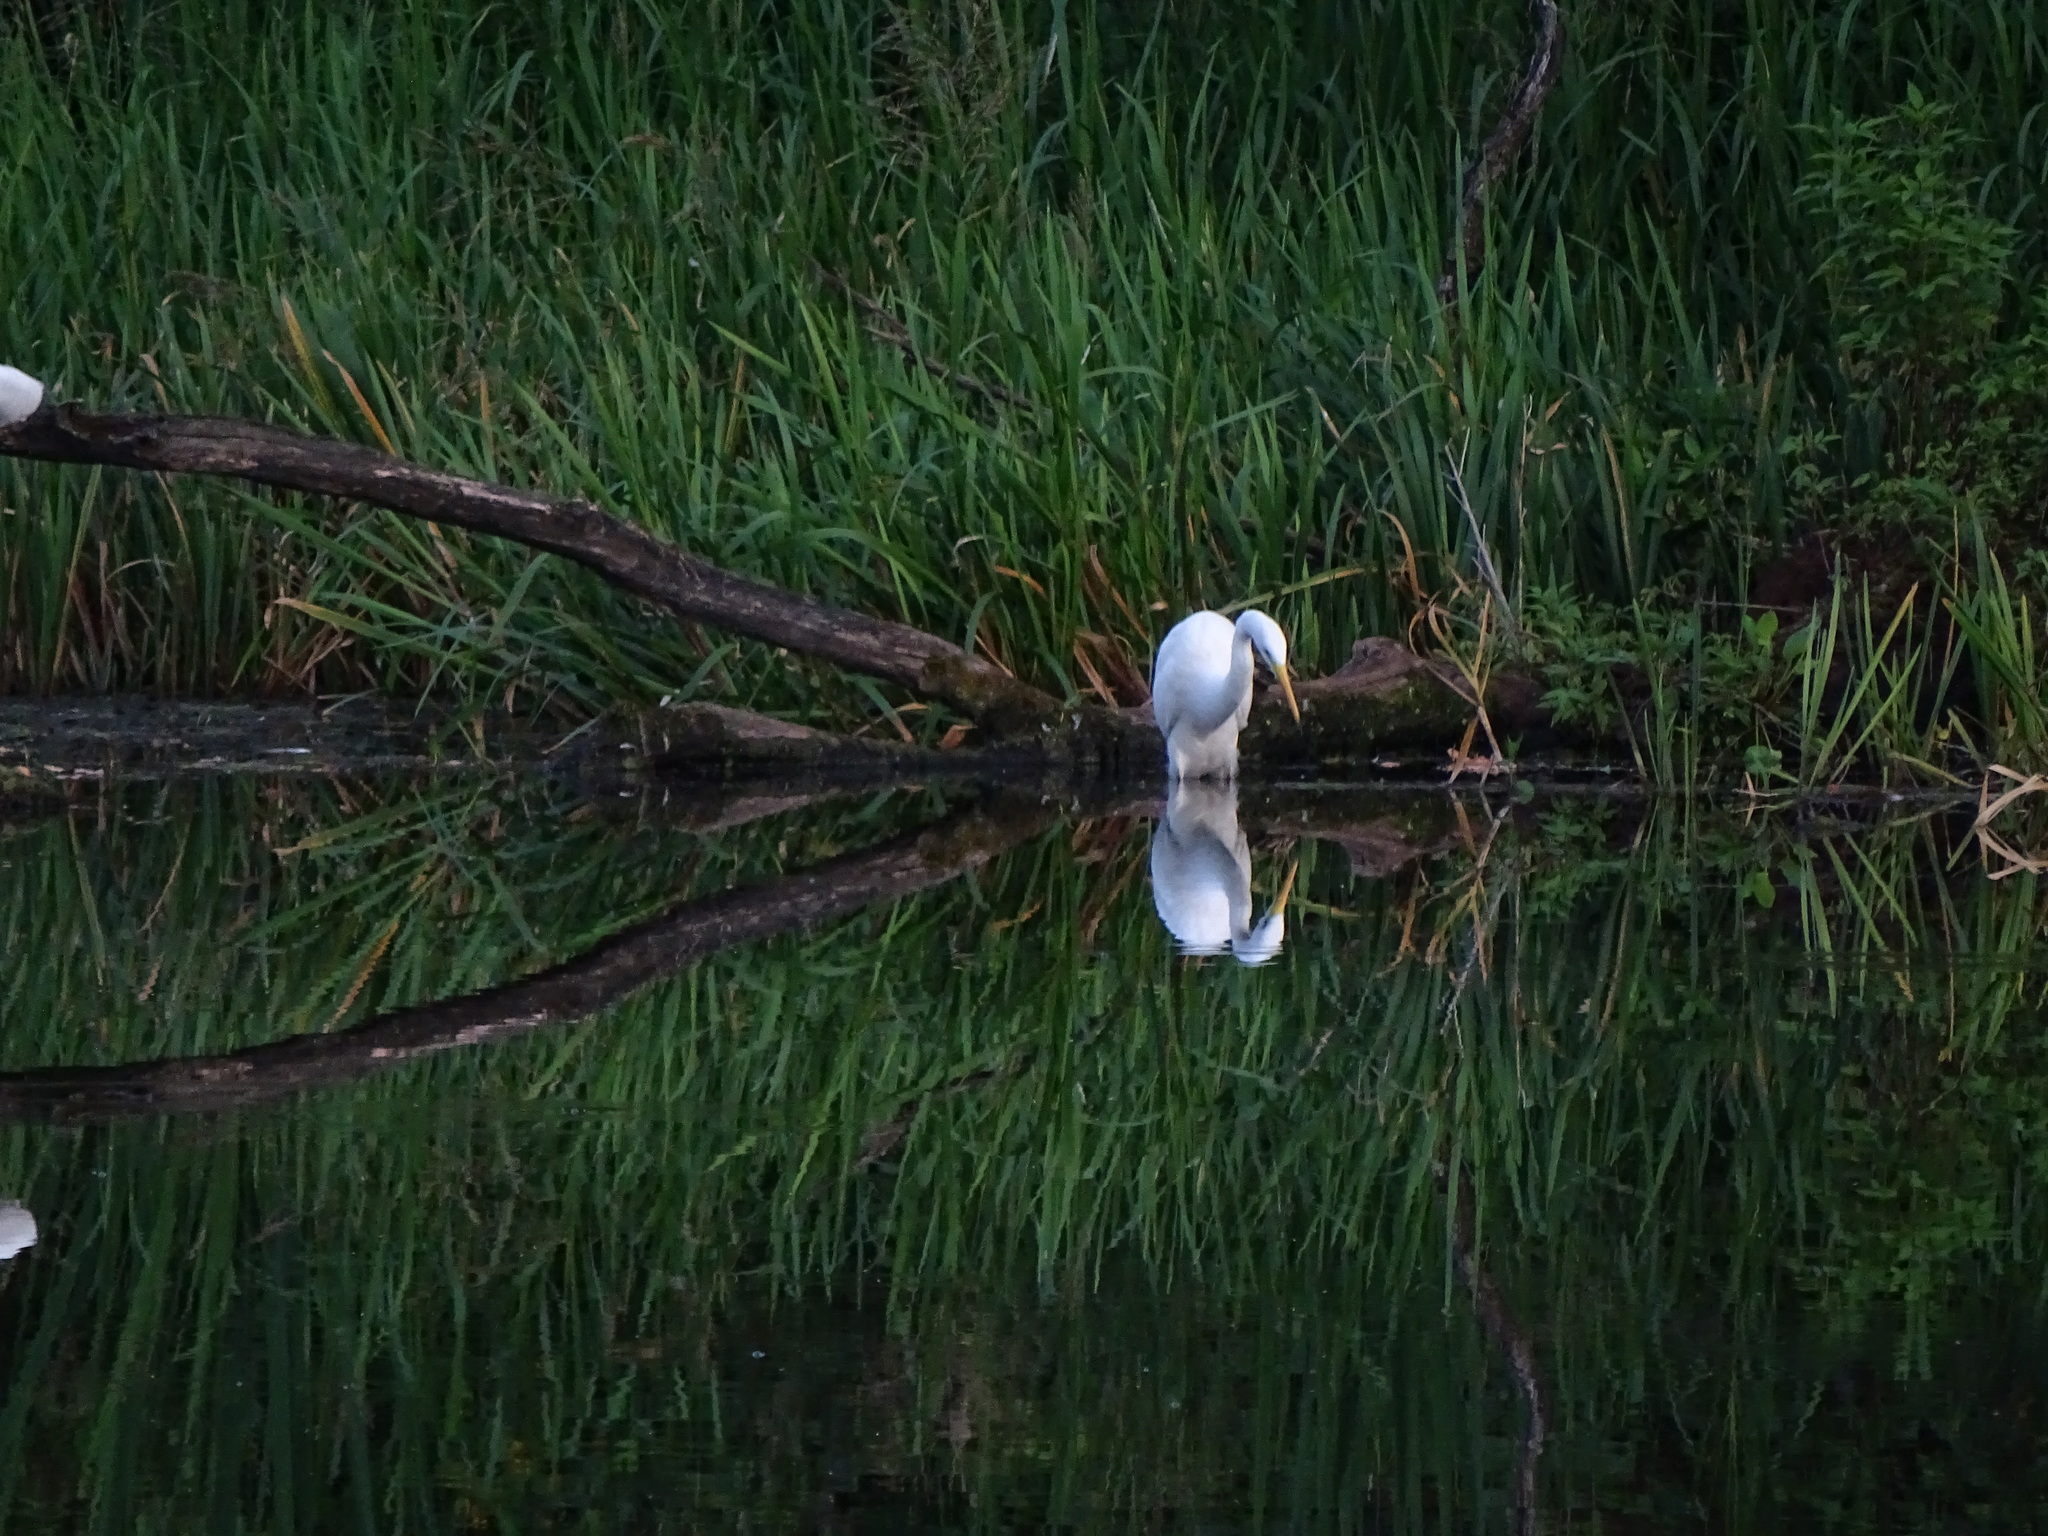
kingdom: Animalia
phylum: Chordata
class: Aves
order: Pelecaniformes
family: Ardeidae
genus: Ardea
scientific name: Ardea alba
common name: Great egret
